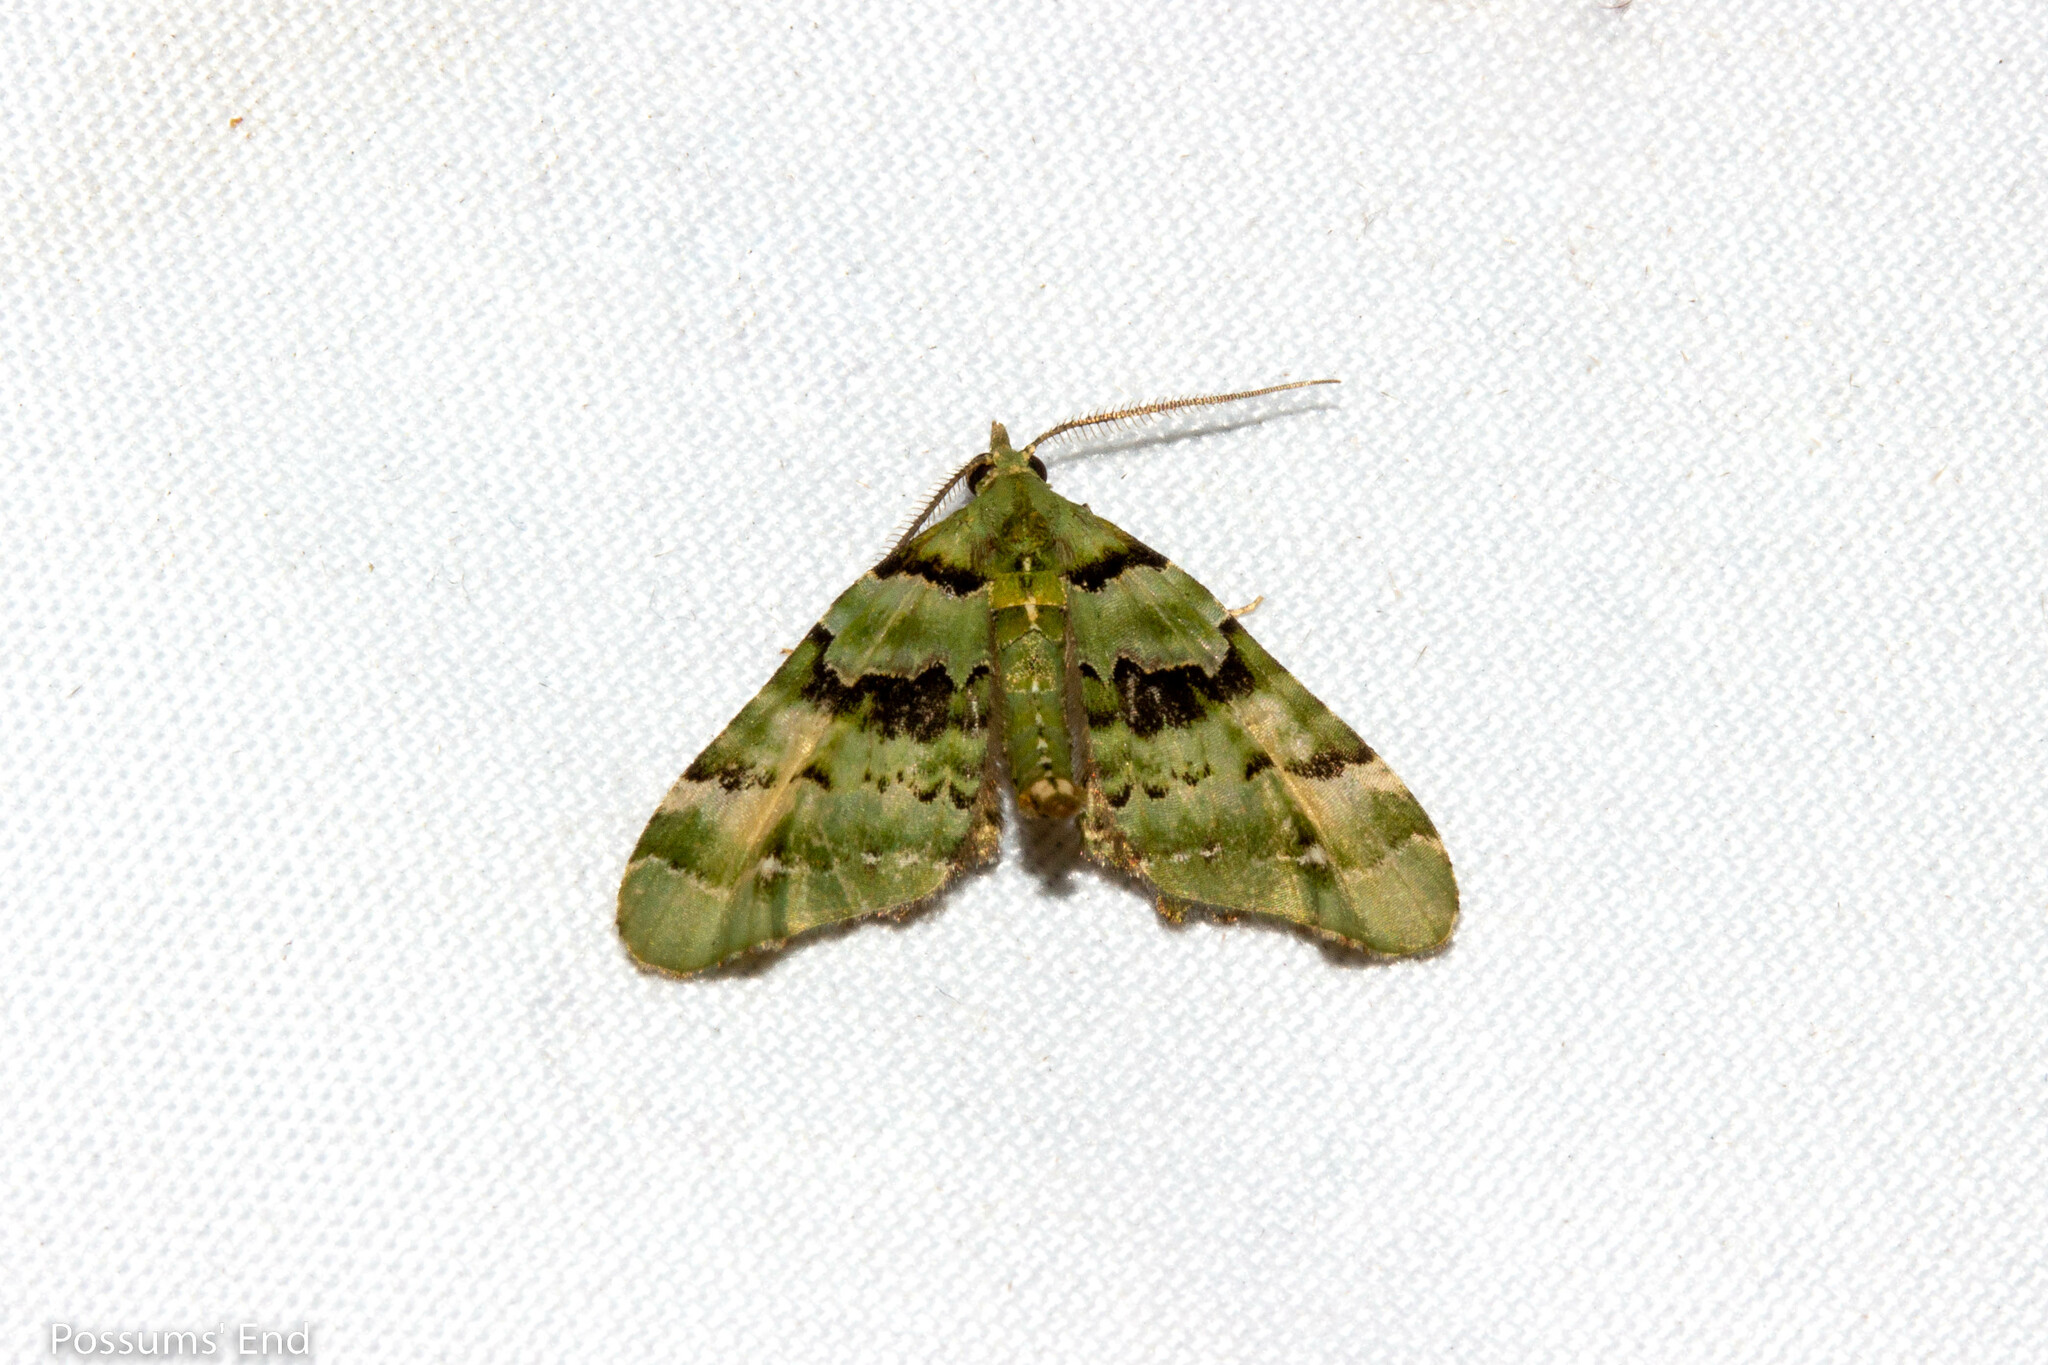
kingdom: Animalia
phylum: Arthropoda
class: Insecta
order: Lepidoptera
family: Geometridae
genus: Elvia
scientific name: Elvia glaucata
